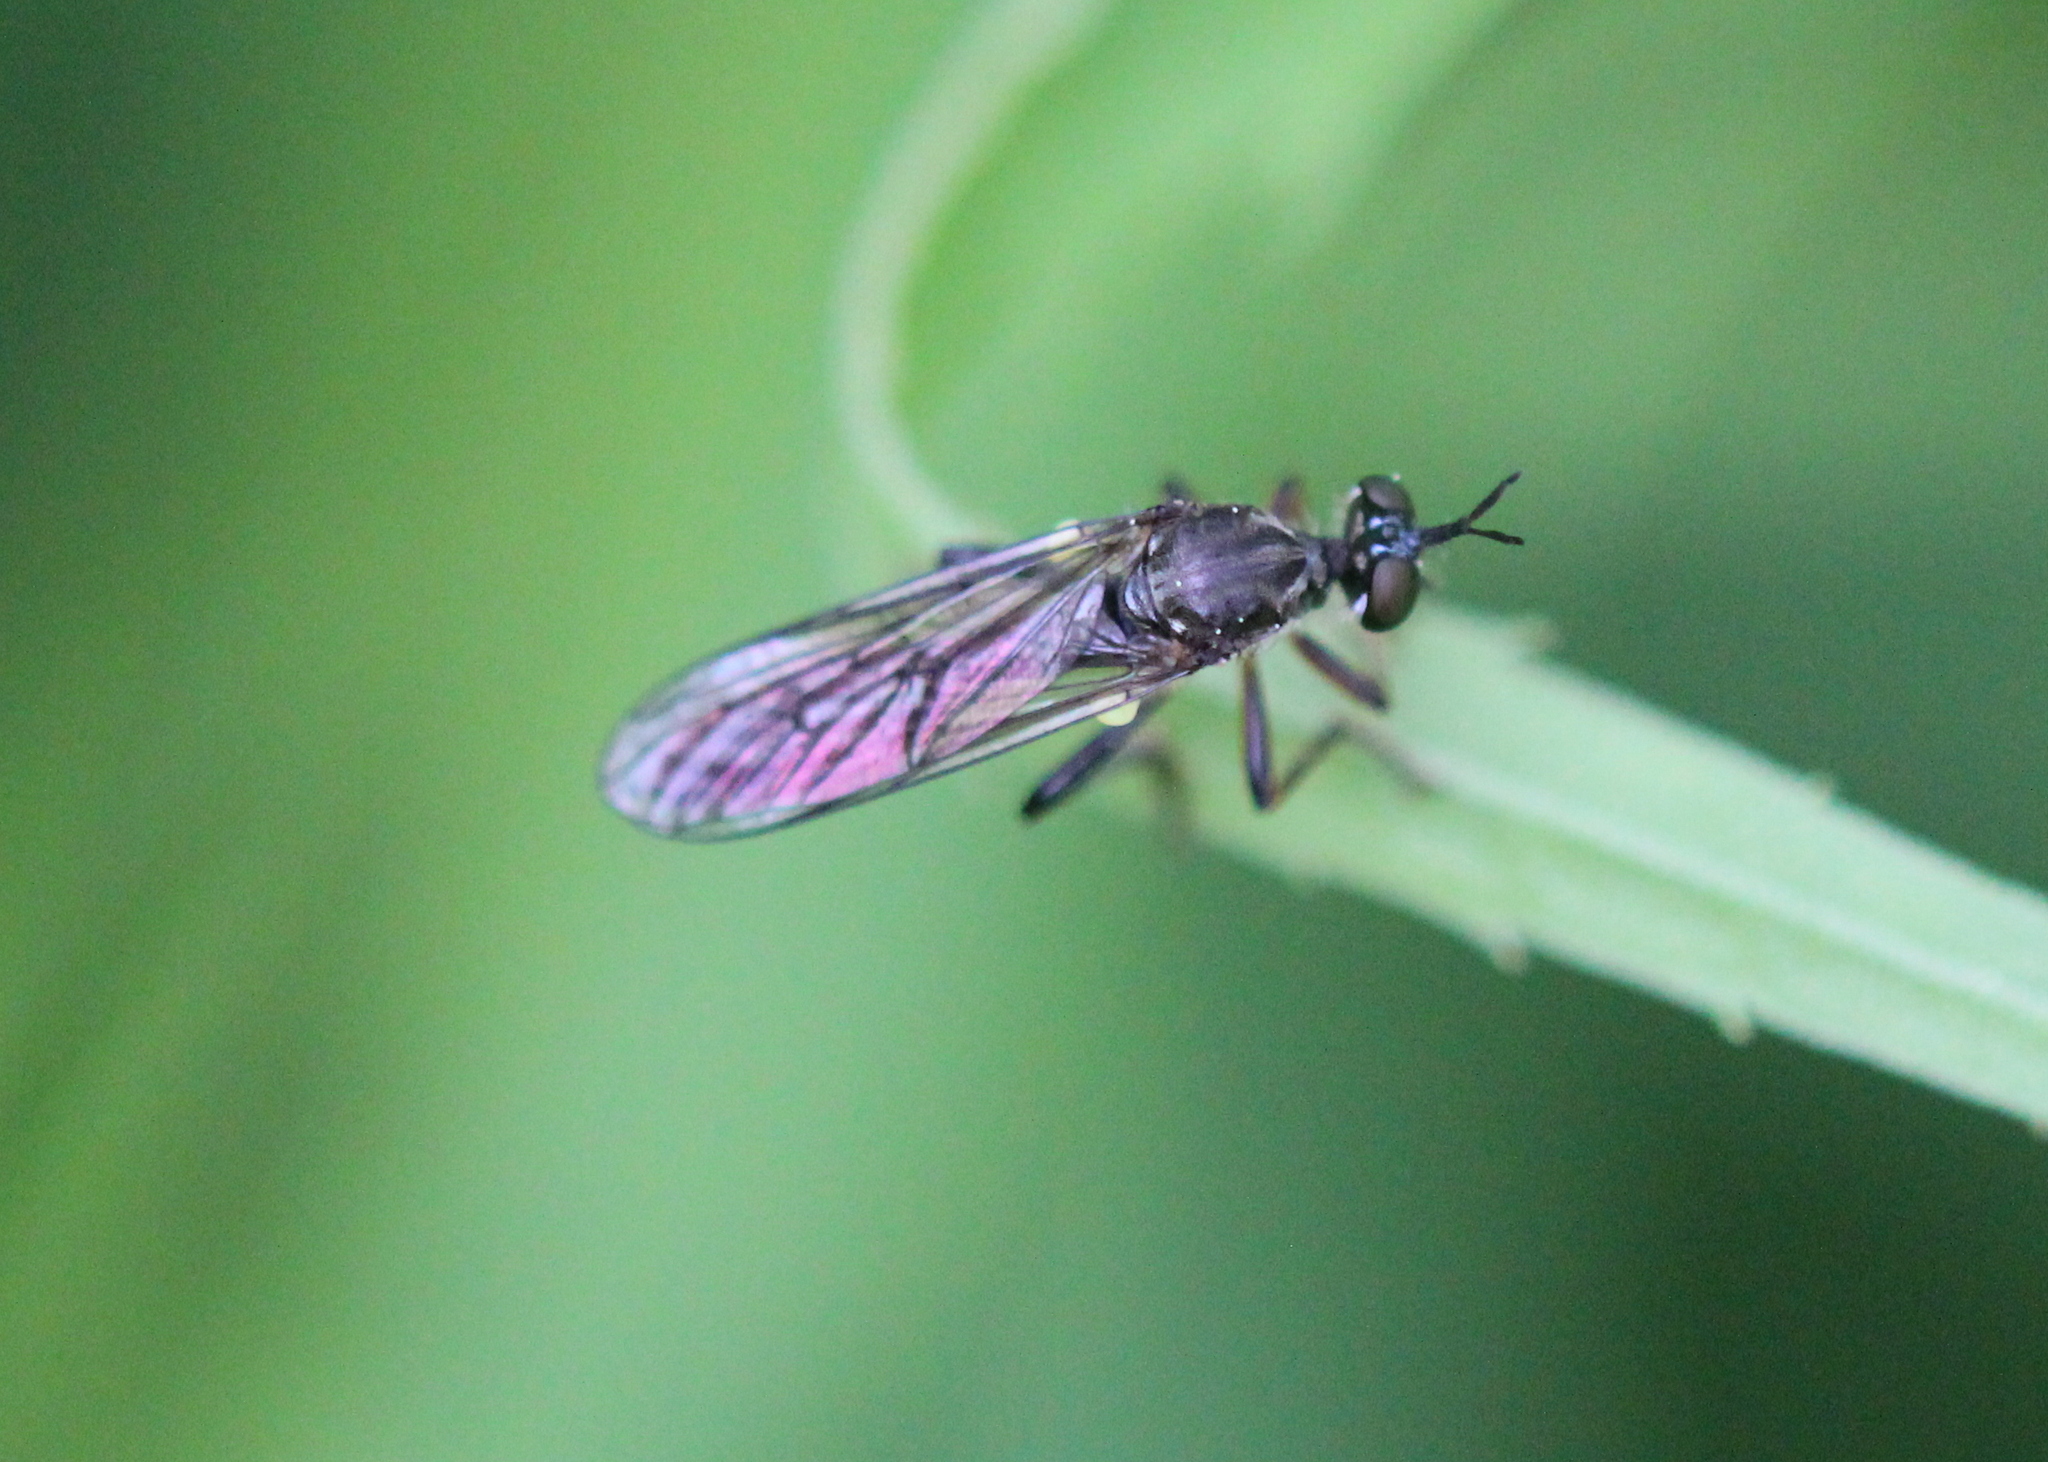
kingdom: Animalia
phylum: Arthropoda
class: Insecta
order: Diptera
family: Asilidae
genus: Dioctria
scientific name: Dioctria hyalipennis
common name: Stripe-legged robberfly
